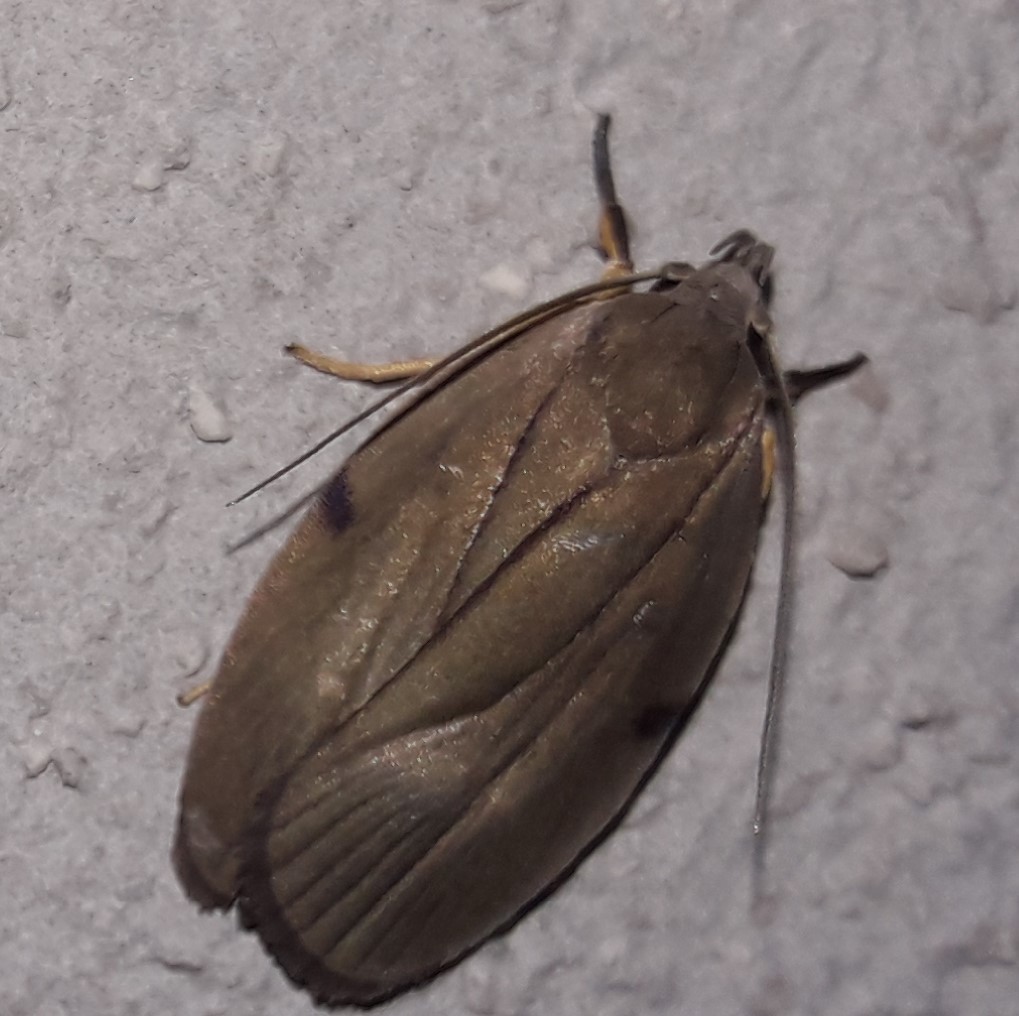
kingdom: Animalia
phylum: Arthropoda
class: Insecta
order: Lepidoptera
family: Depressariidae
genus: Stenoma
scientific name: Stenoma exarata
